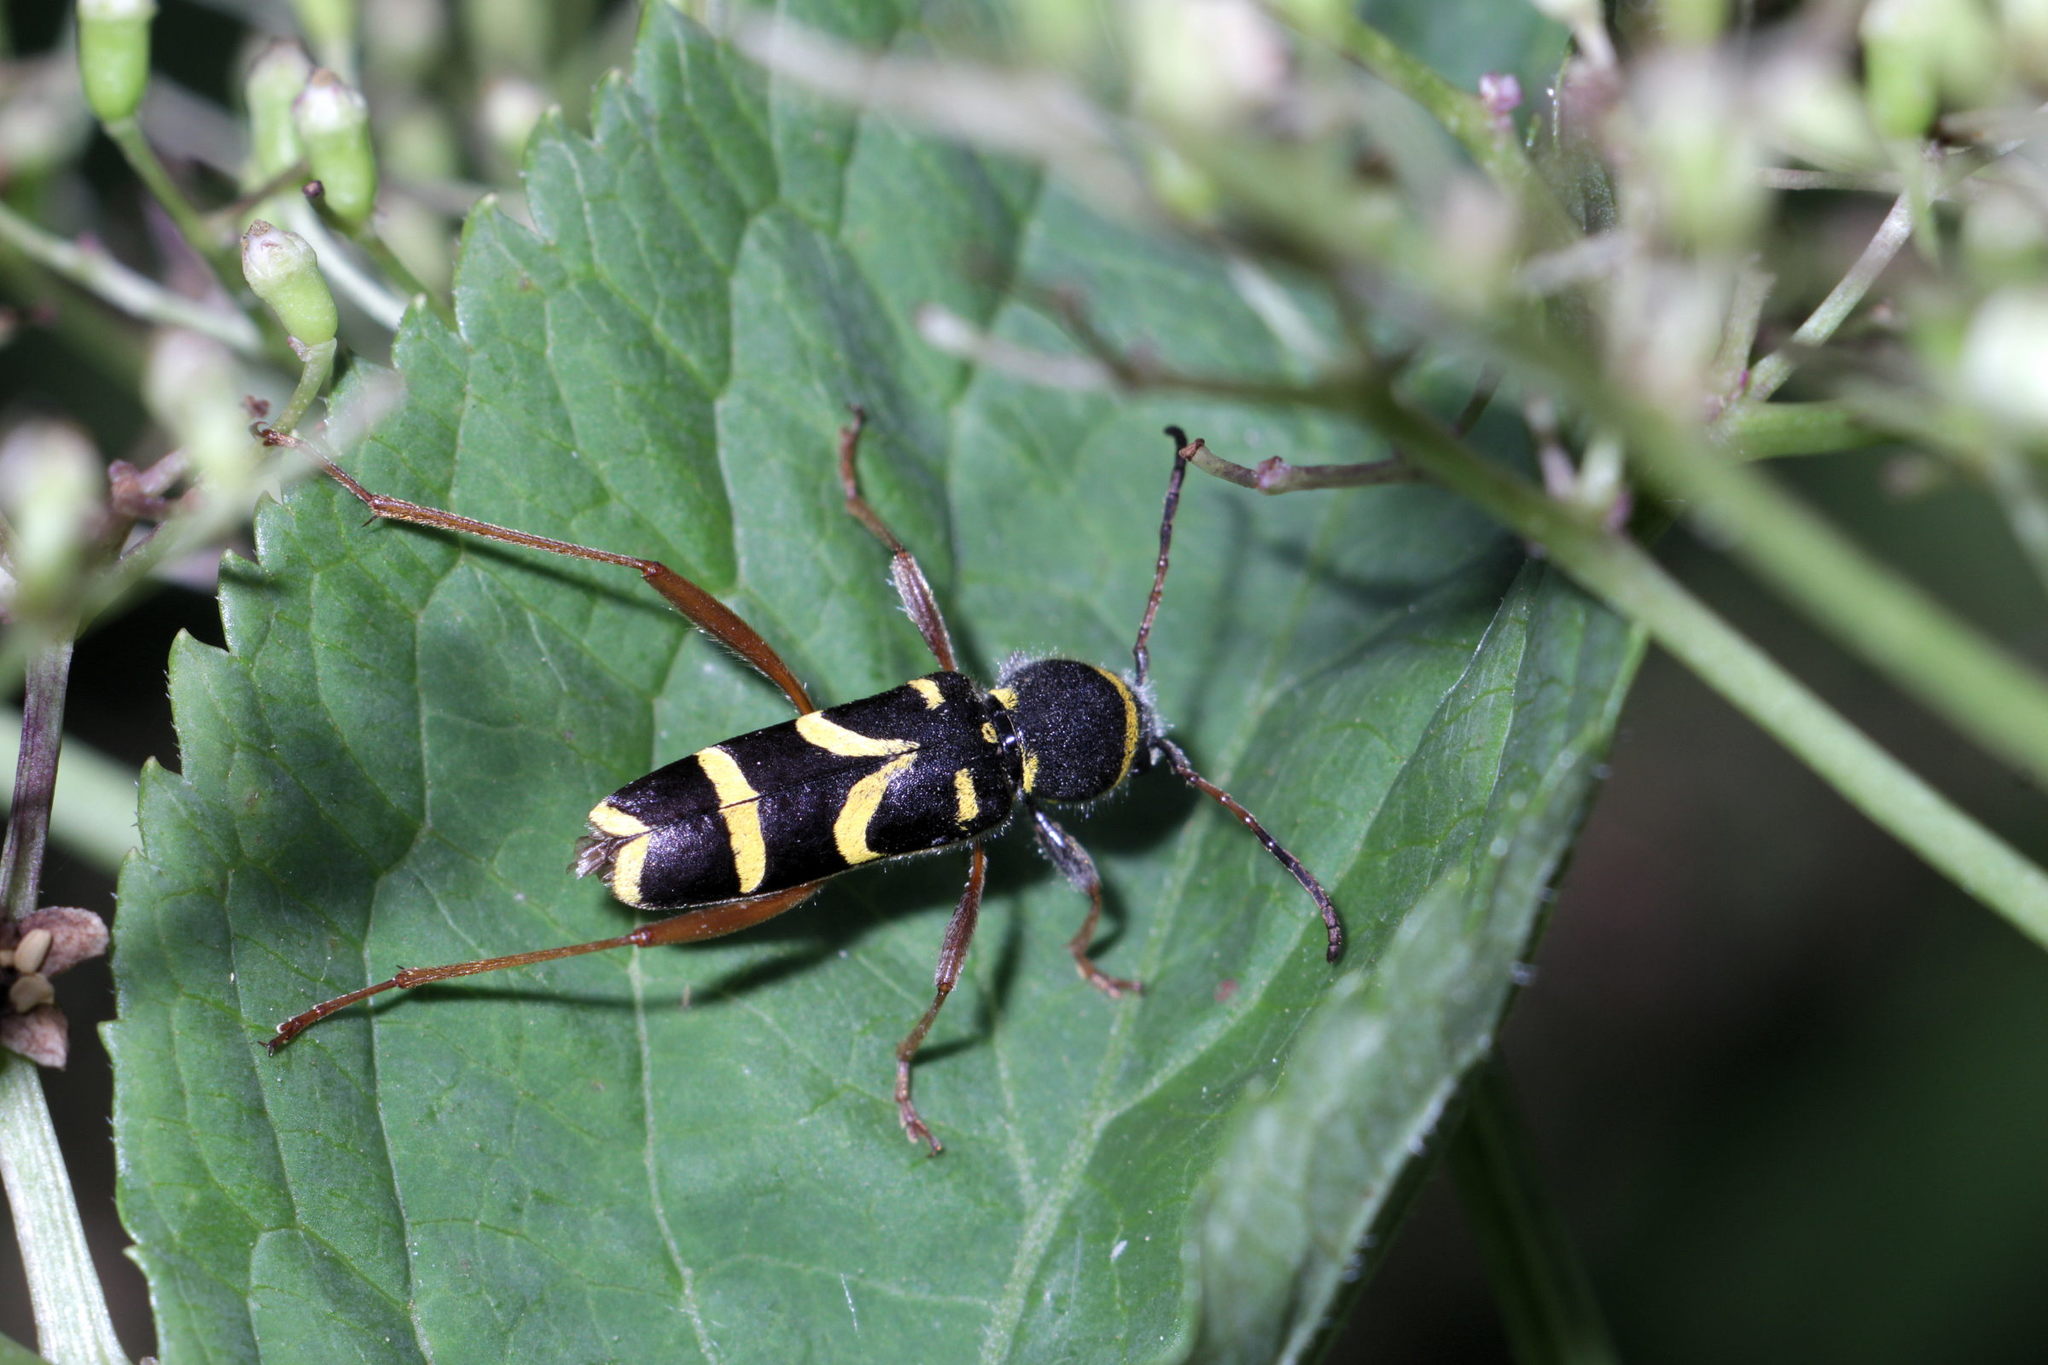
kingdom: Animalia
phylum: Arthropoda
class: Insecta
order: Coleoptera
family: Cerambycidae
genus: Clytus
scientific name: Clytus arietis
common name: Wasp beetle
